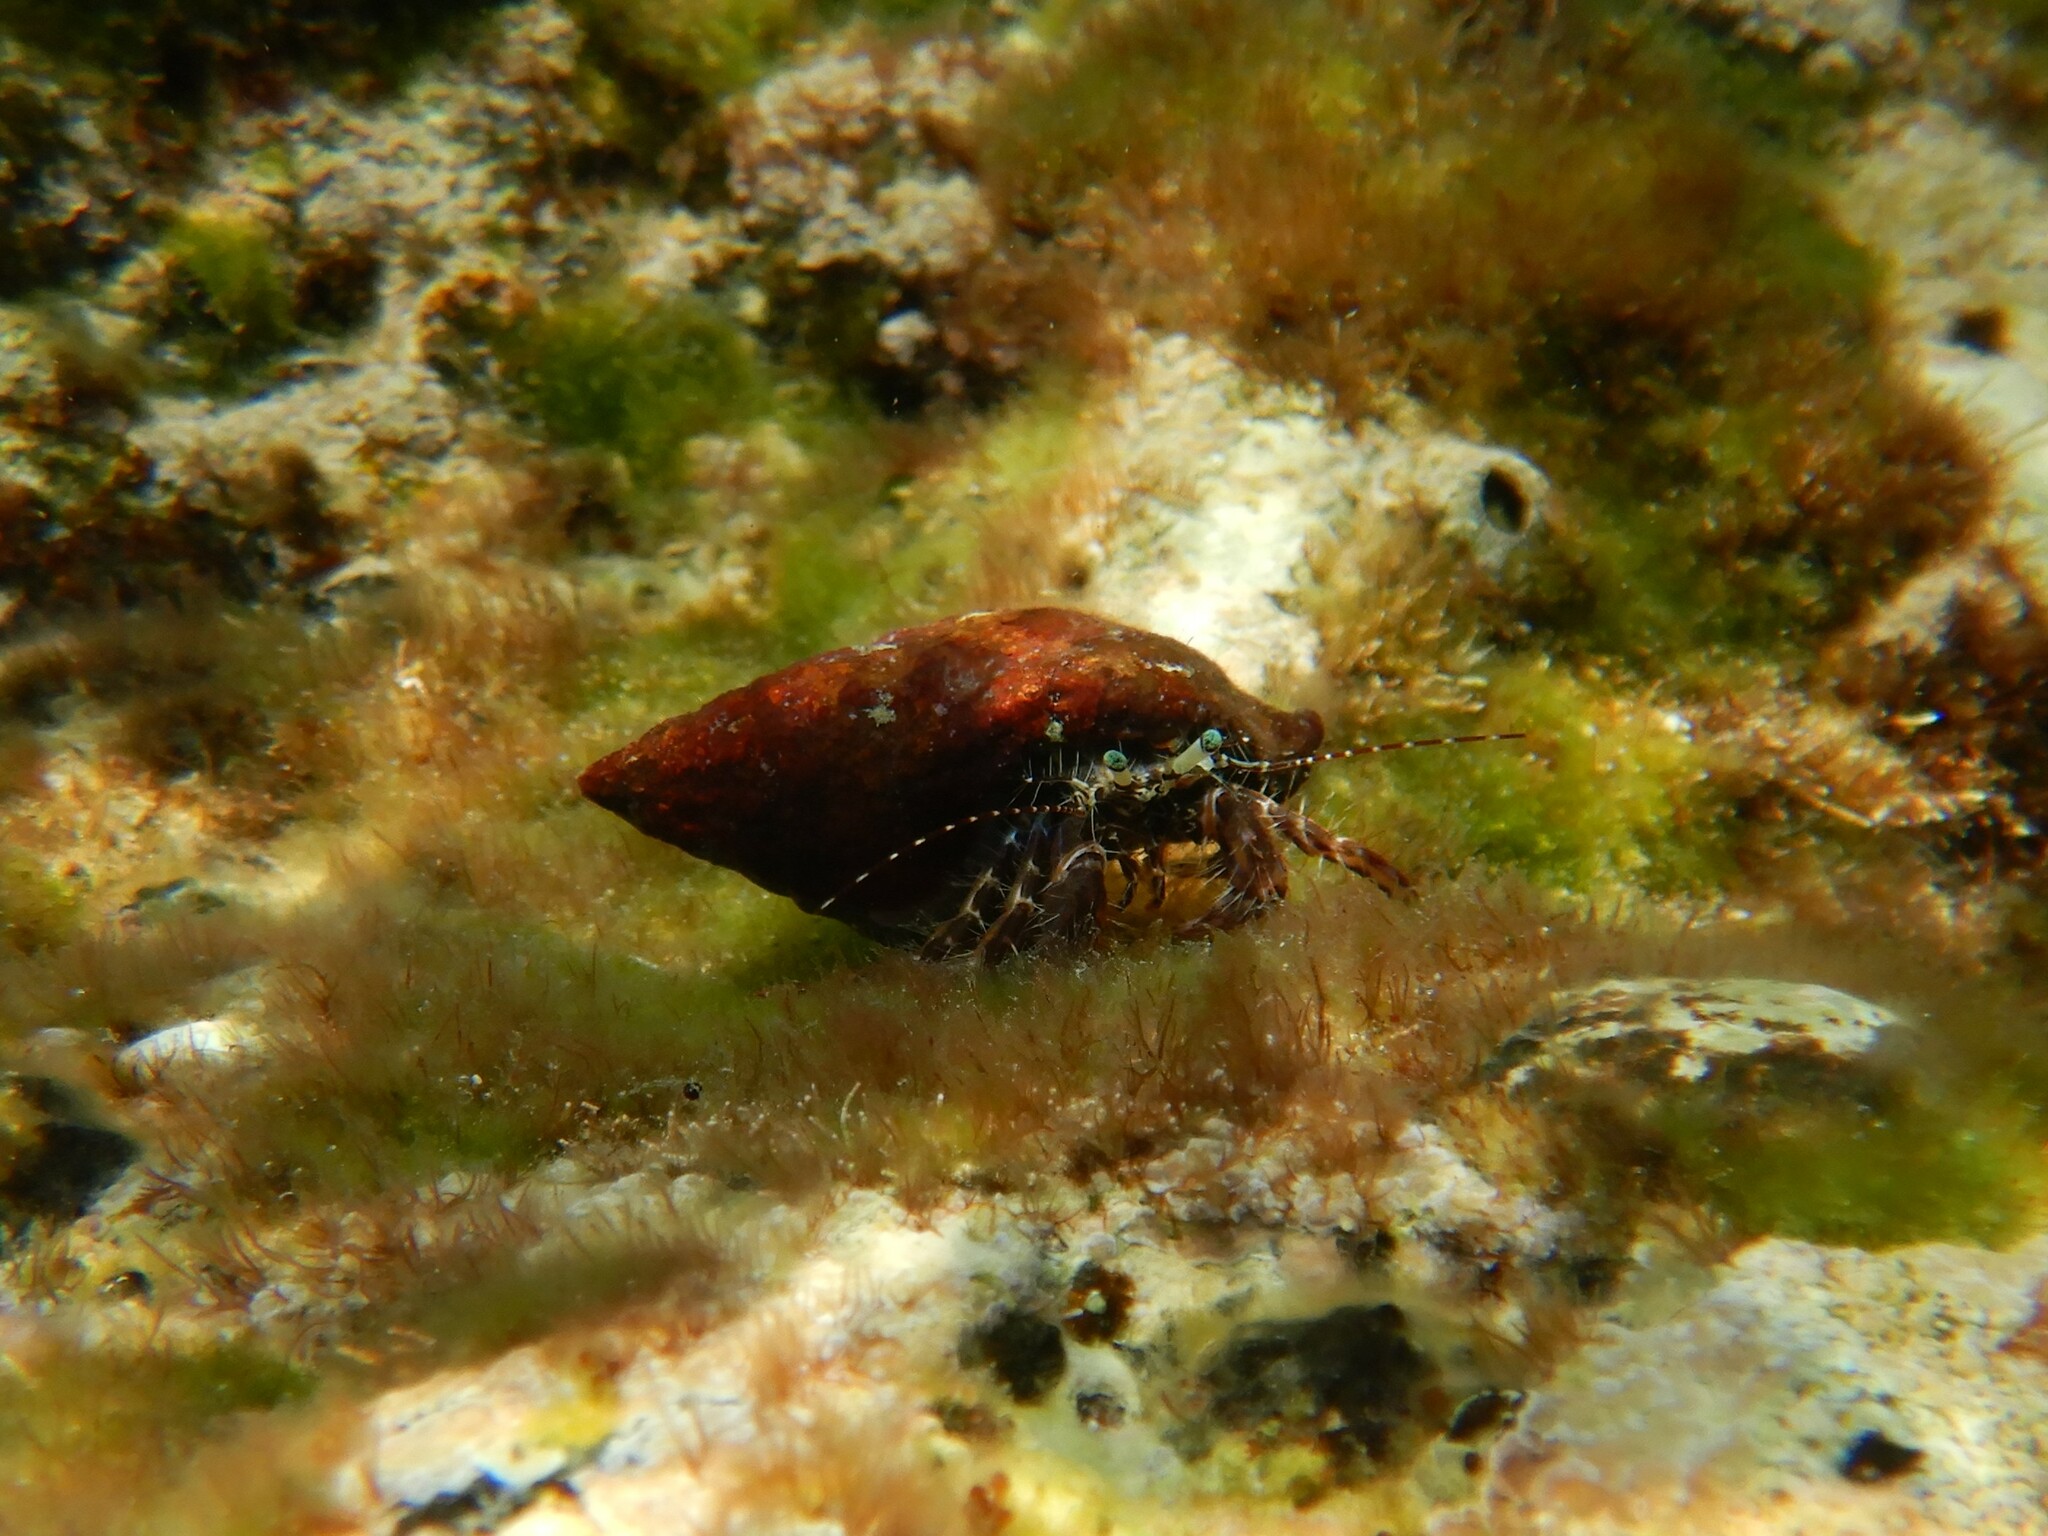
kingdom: Animalia
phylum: Arthropoda
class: Malacostraca
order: Decapoda
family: Paguridae
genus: Pagurus
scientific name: Pagurus anachoretus
